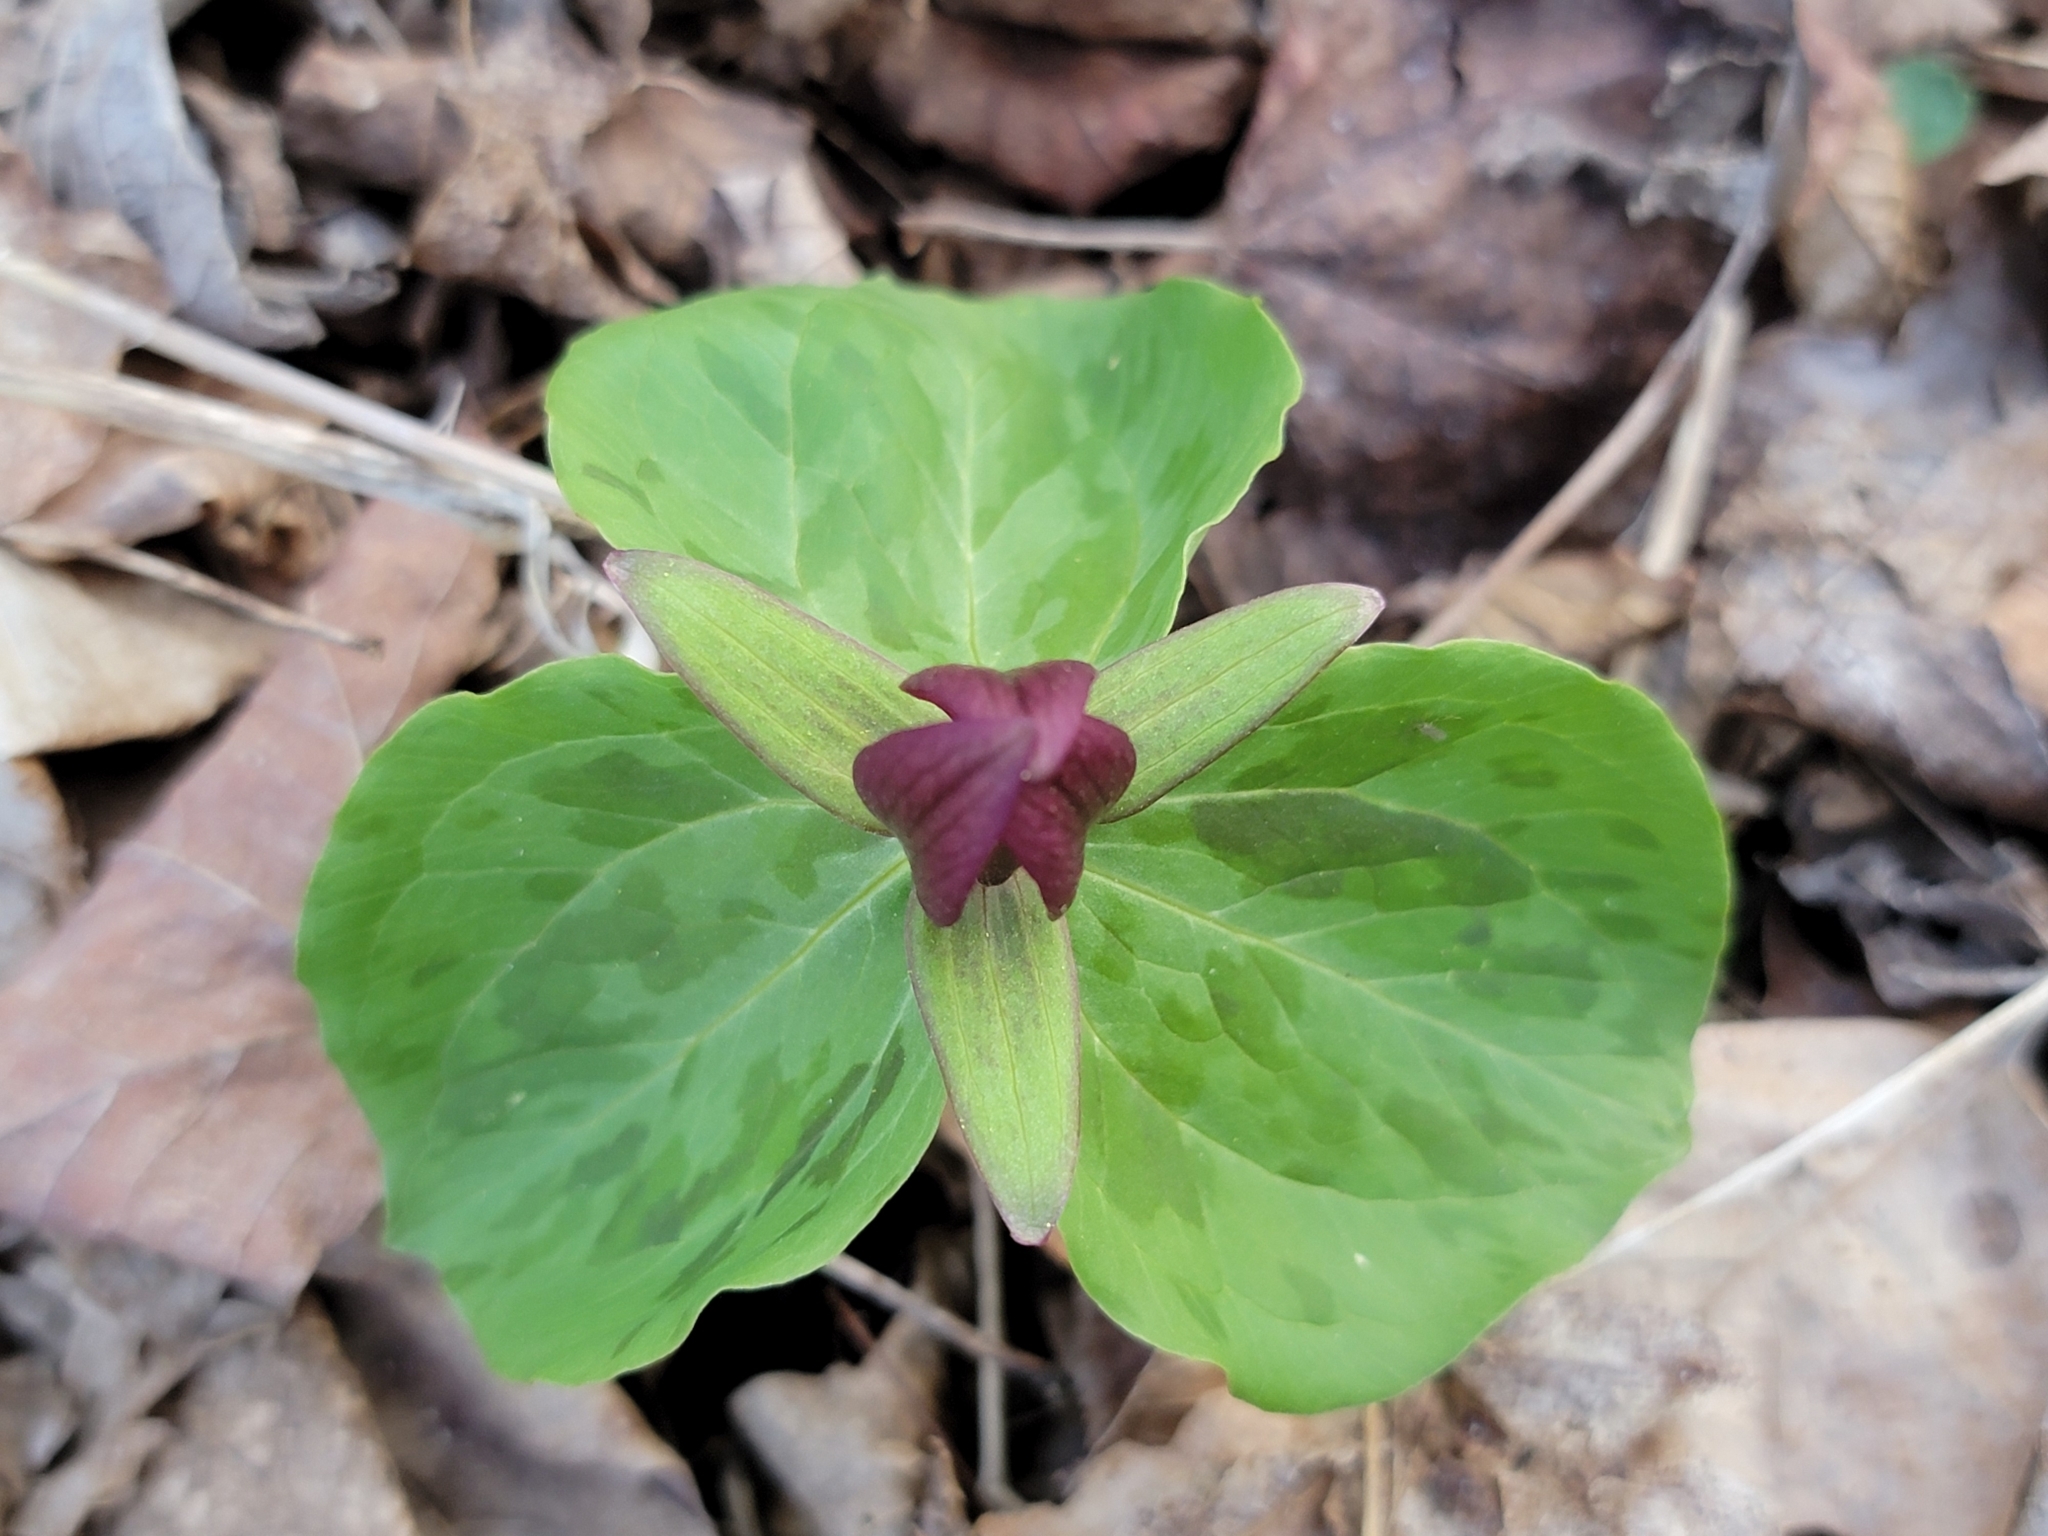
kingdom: Plantae
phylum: Tracheophyta
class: Liliopsida
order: Liliales
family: Melanthiaceae
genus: Trillium
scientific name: Trillium sessile
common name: Sessile trillium
